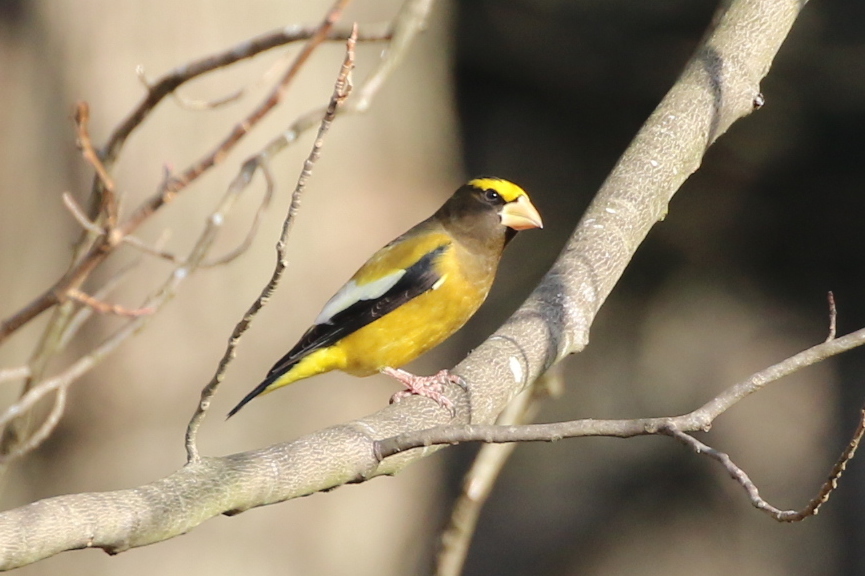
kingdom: Animalia
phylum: Chordata
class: Aves
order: Passeriformes
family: Fringillidae
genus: Hesperiphona
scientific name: Hesperiphona vespertina
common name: Evening grosbeak
